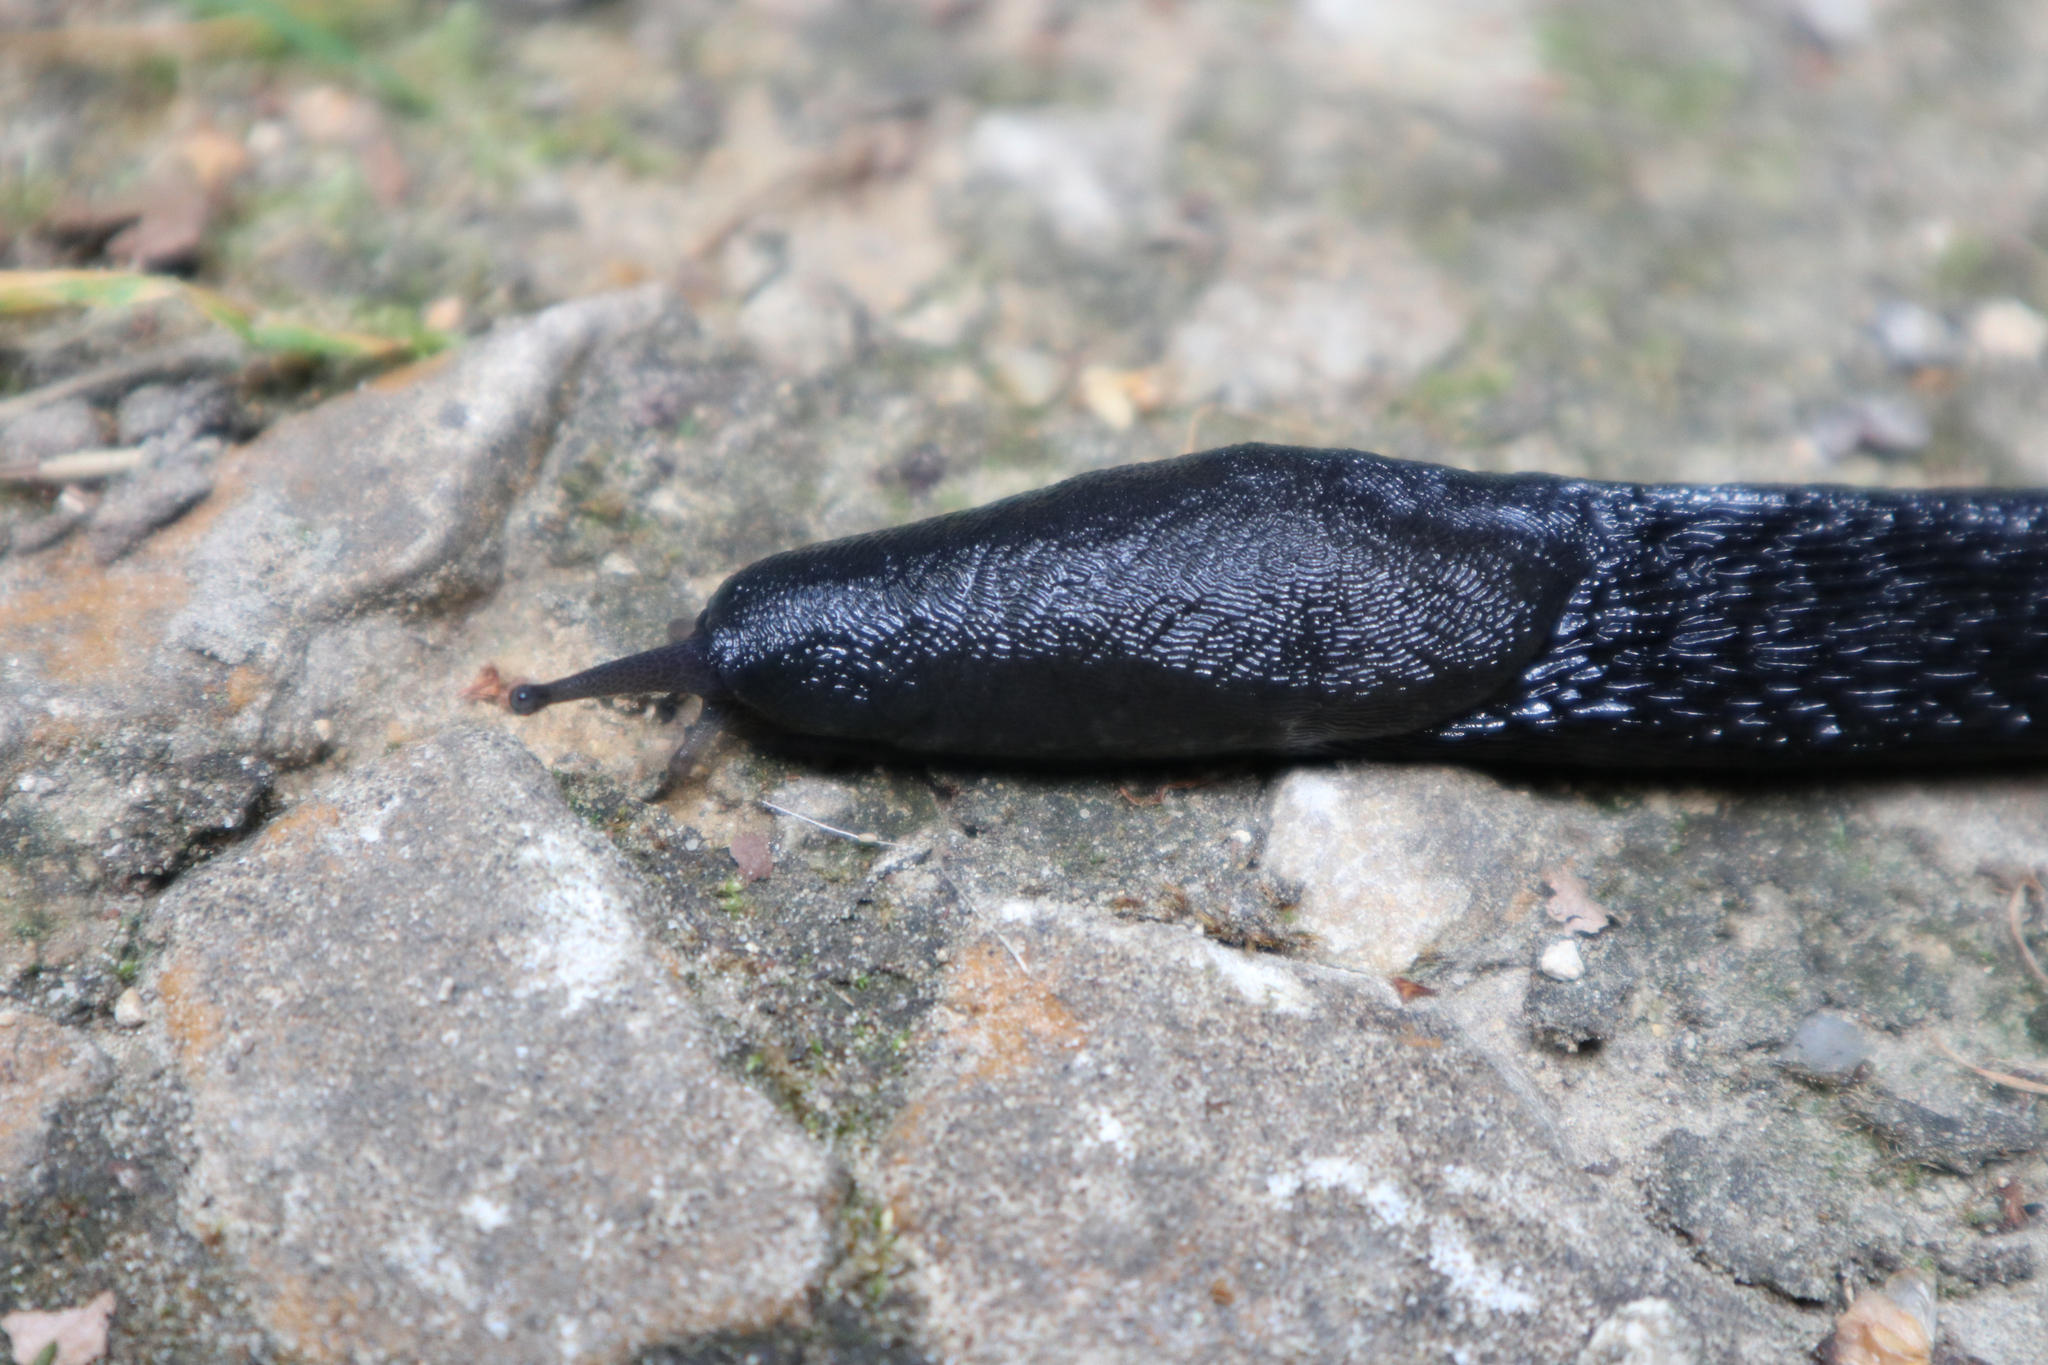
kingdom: Animalia
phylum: Mollusca
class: Gastropoda
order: Stylommatophora
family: Limacidae
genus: Limax
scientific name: Limax cinereoniger
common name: Ash-black slug
